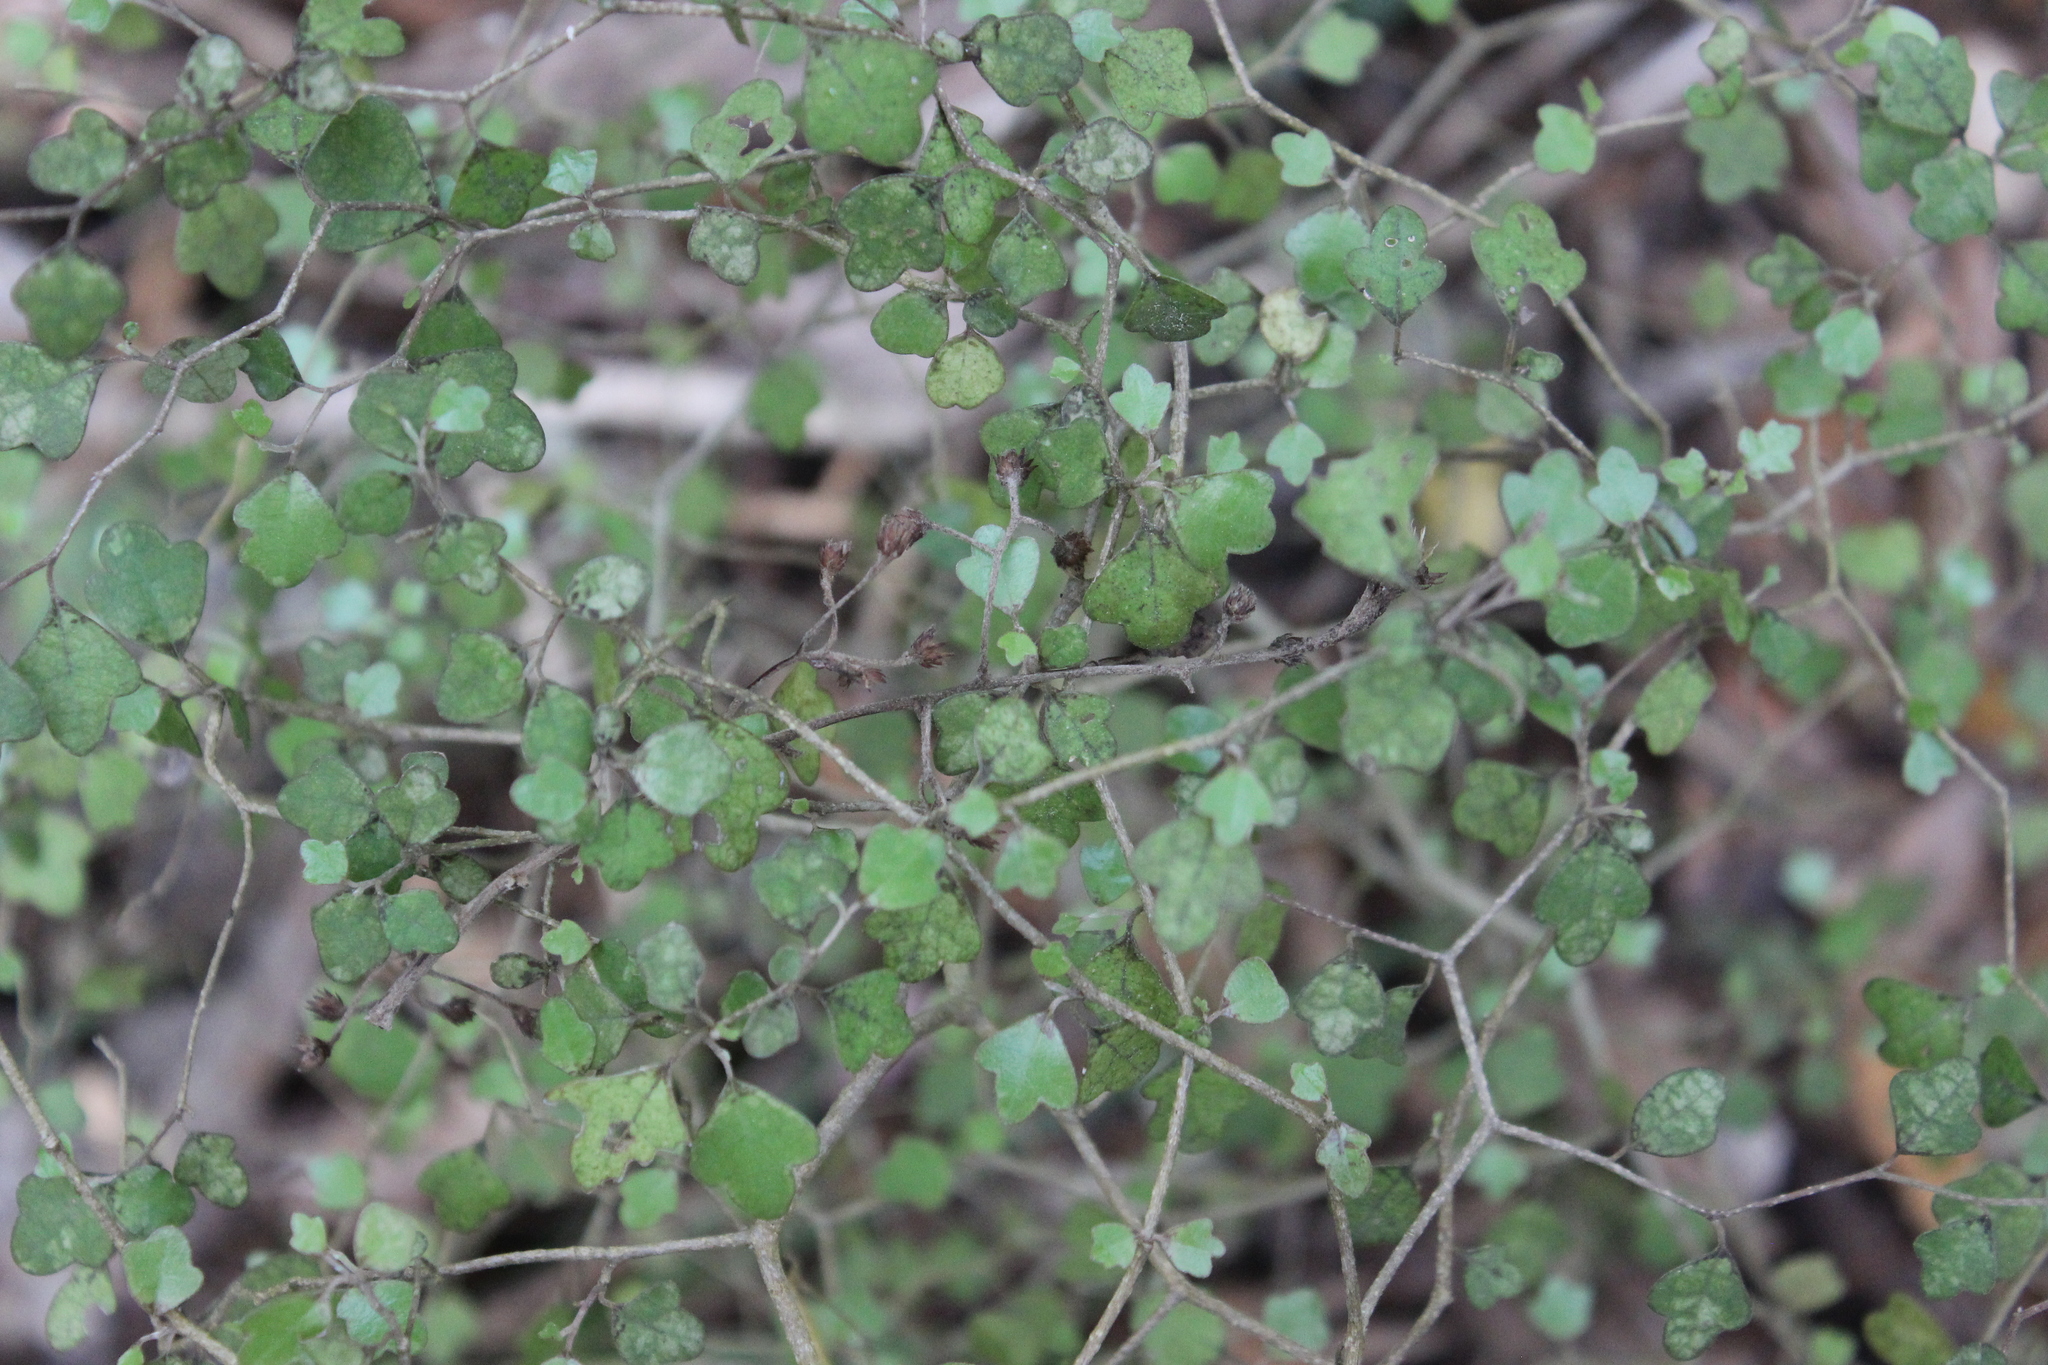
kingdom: Plantae
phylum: Tracheophyta
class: Magnoliopsida
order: Apiales
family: Pennantiaceae
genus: Pennantia
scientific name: Pennantia corymbosa
